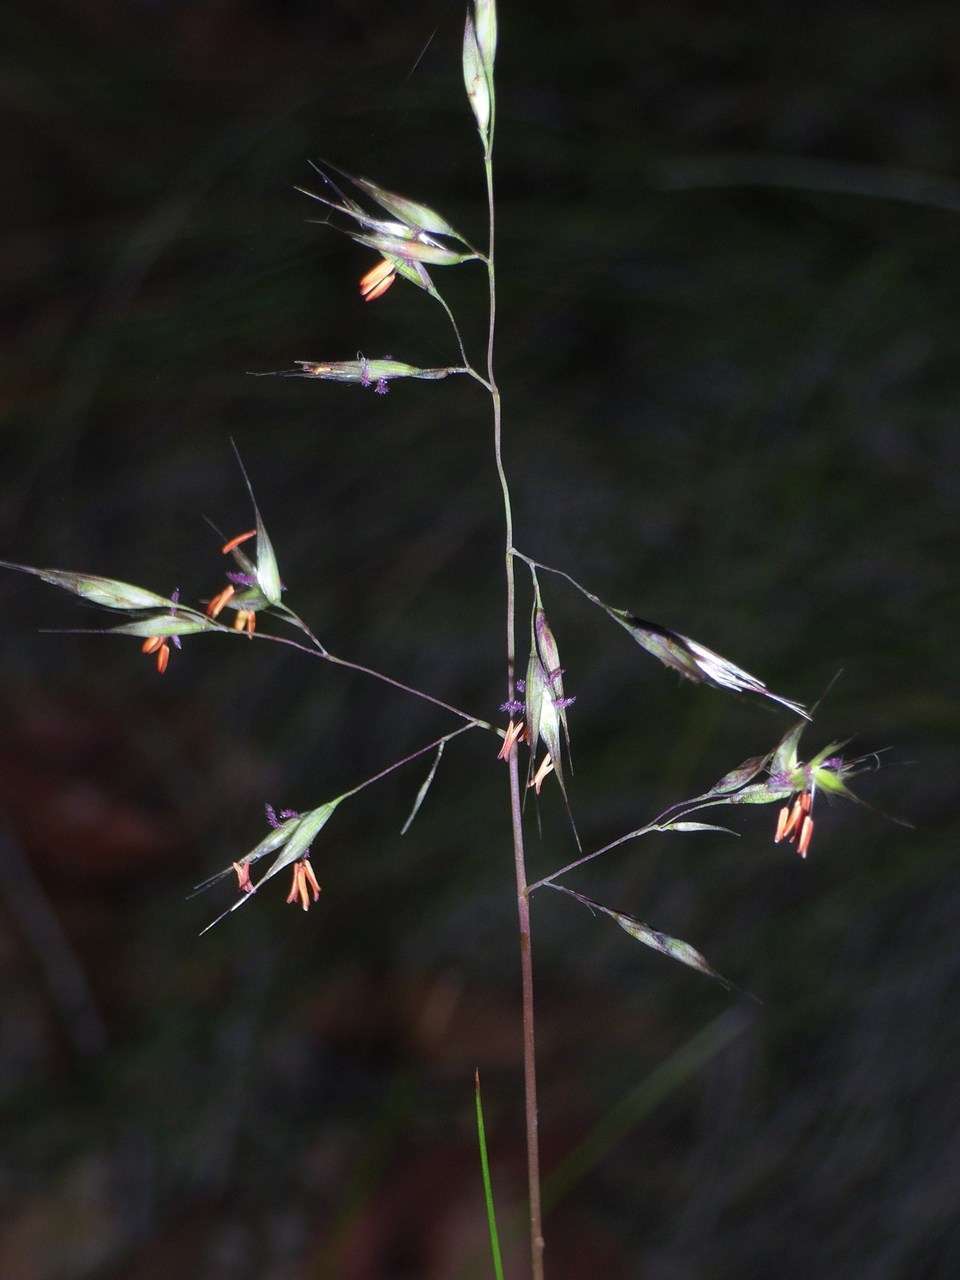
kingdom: Plantae
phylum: Tracheophyta
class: Liliopsida
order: Poales
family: Poaceae
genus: Rytidosperma
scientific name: Rytidosperma pallidum
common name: Red-anther wallaby grass
